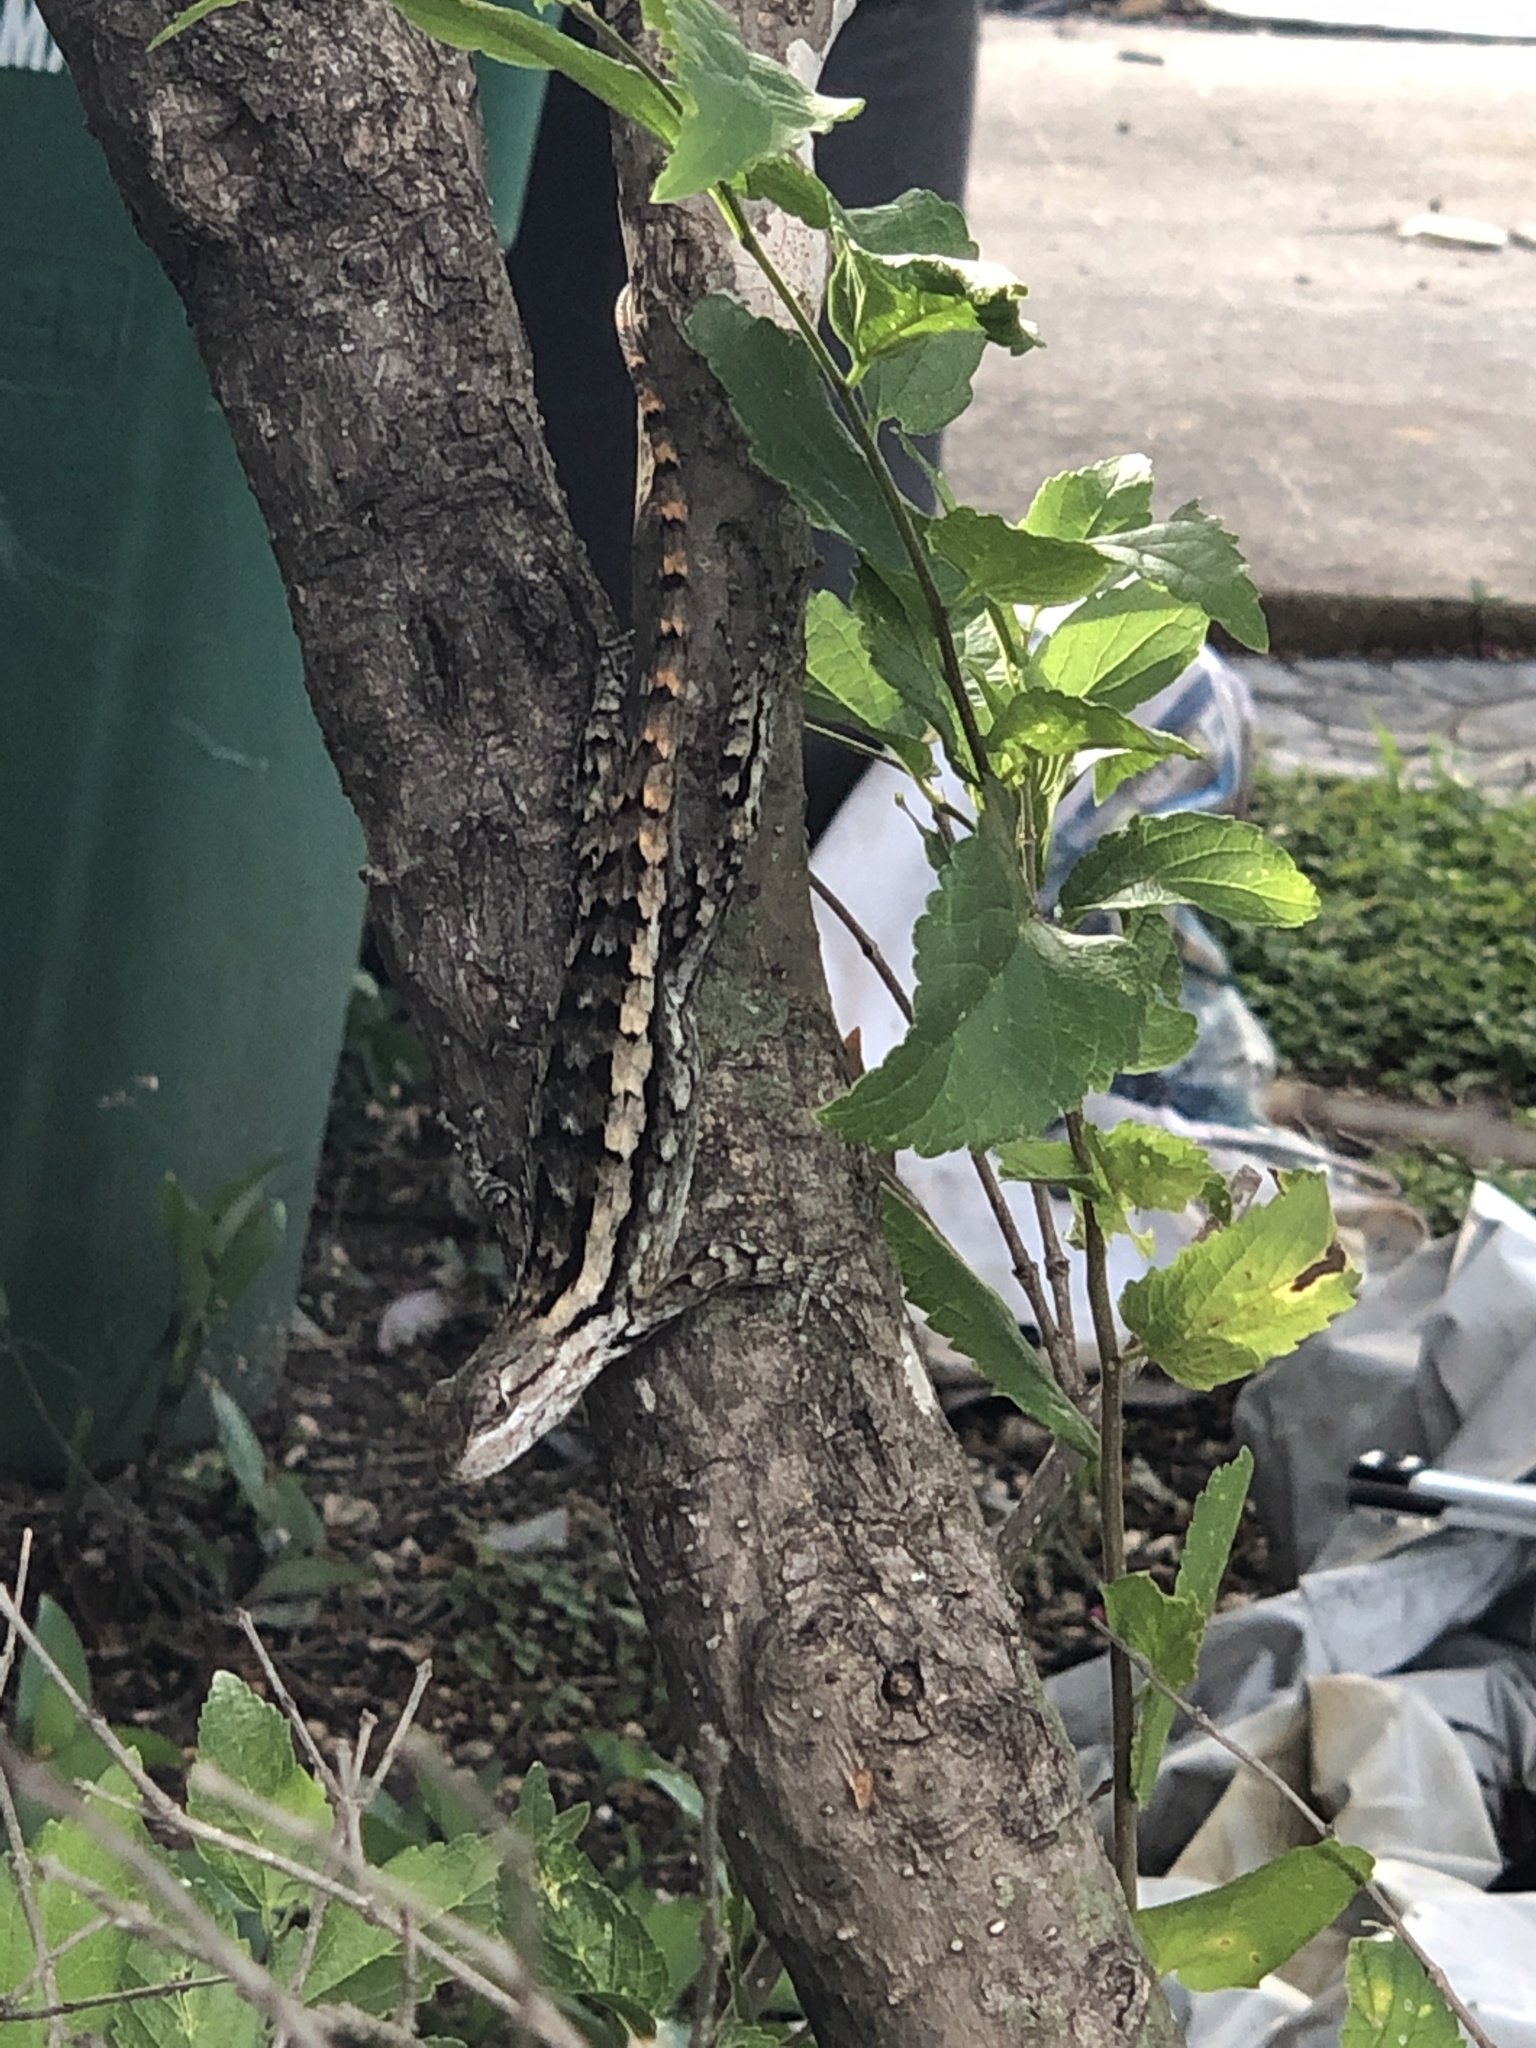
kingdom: Animalia
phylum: Chordata
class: Squamata
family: Phrynosomatidae
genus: Sceloporus
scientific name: Sceloporus olivaceus
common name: Texas spiny lizard
